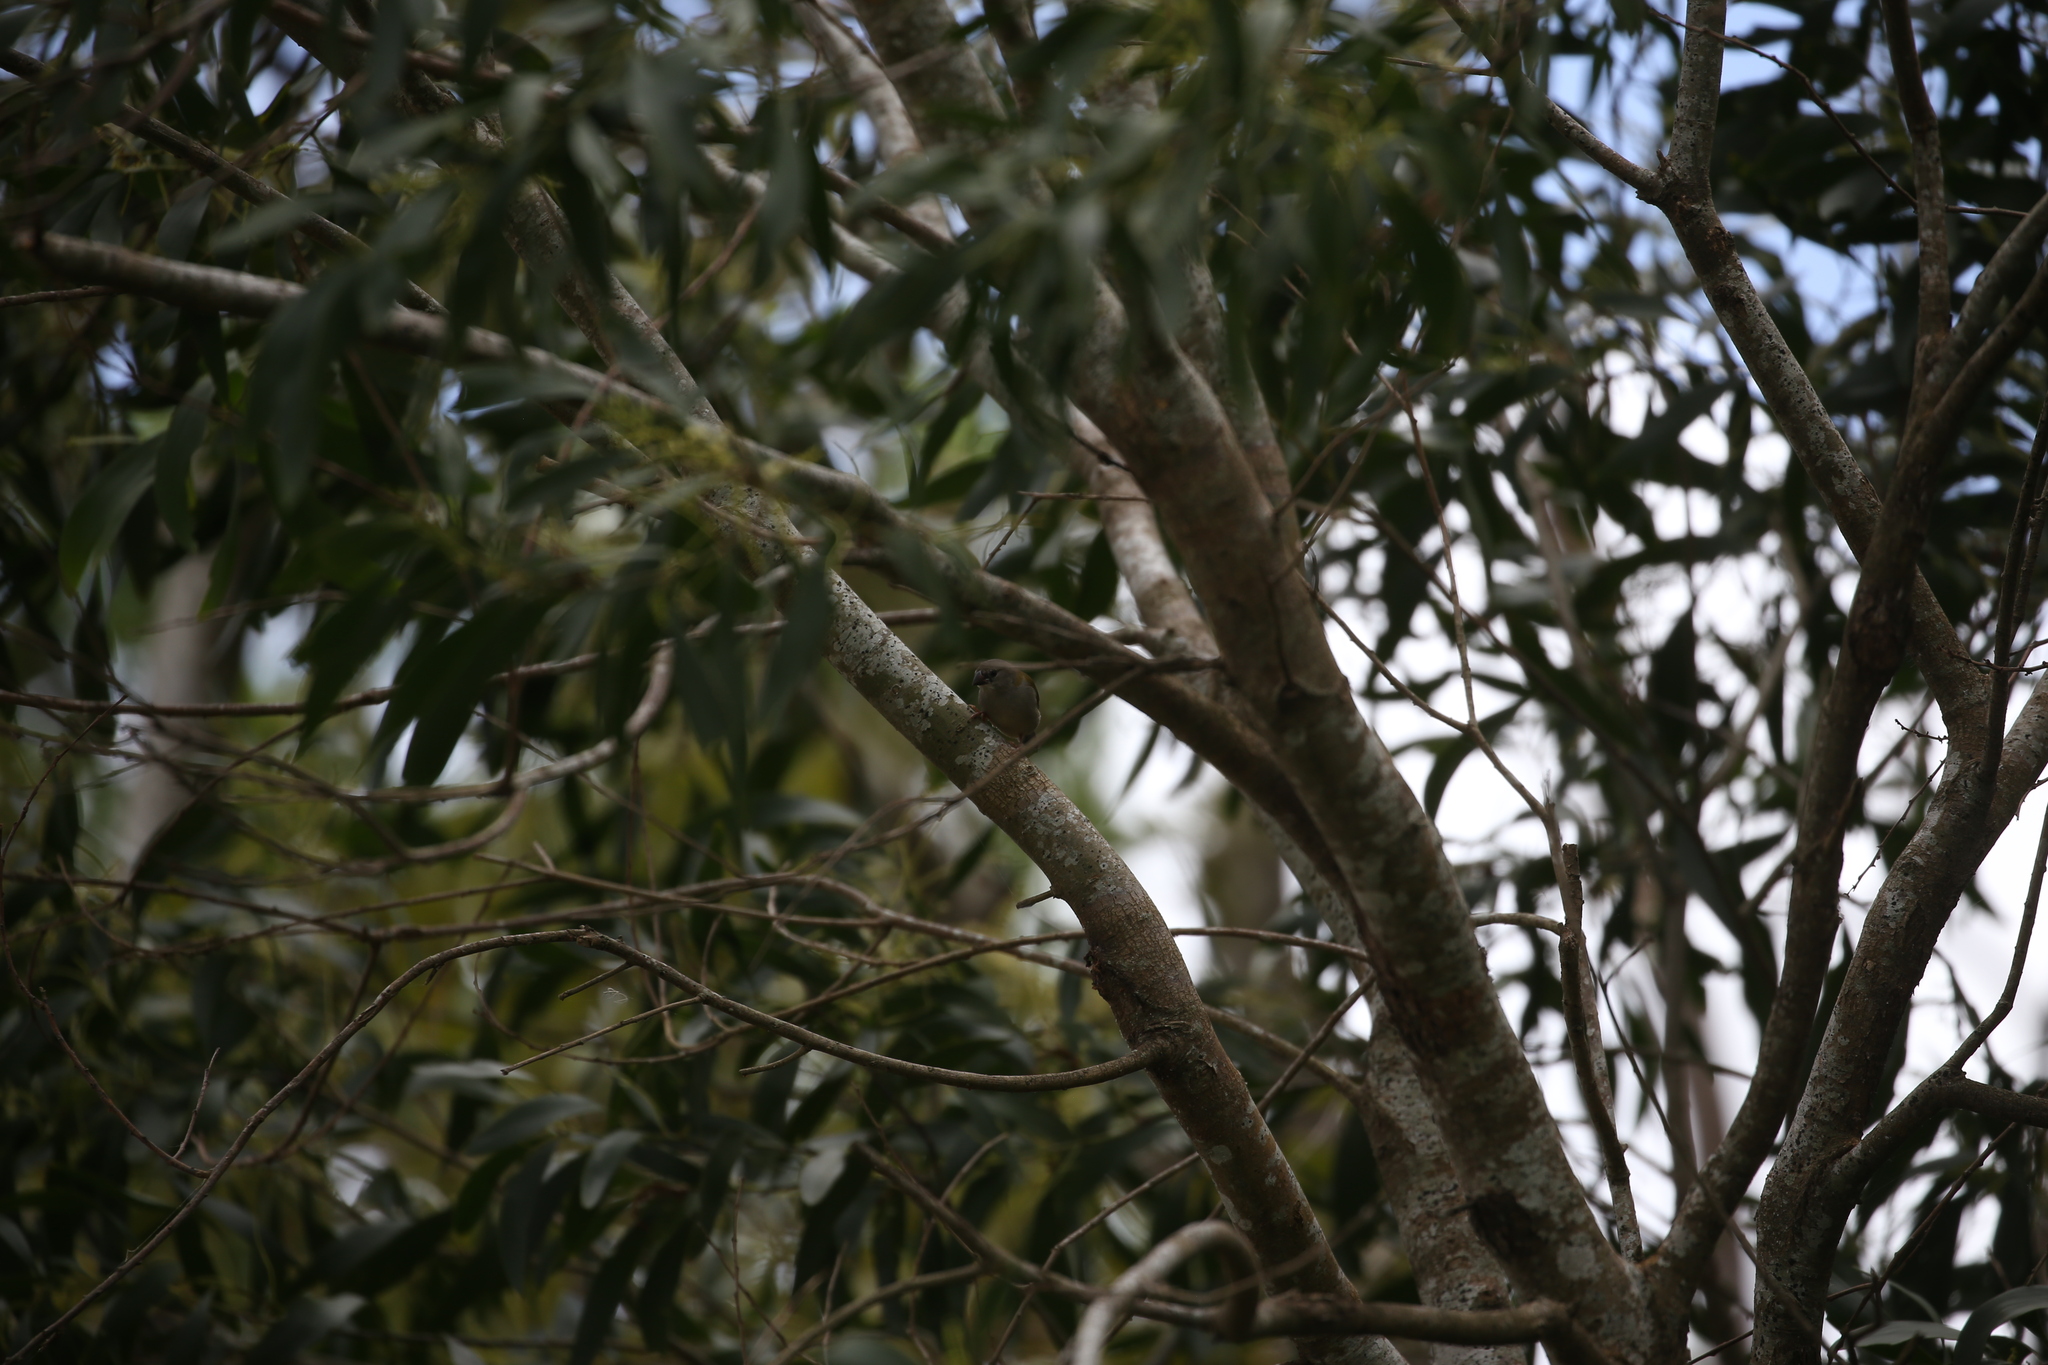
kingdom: Animalia
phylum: Chordata
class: Aves
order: Passeriformes
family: Estrildidae
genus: Neochmia
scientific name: Neochmia temporalis
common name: Red-browed finch
